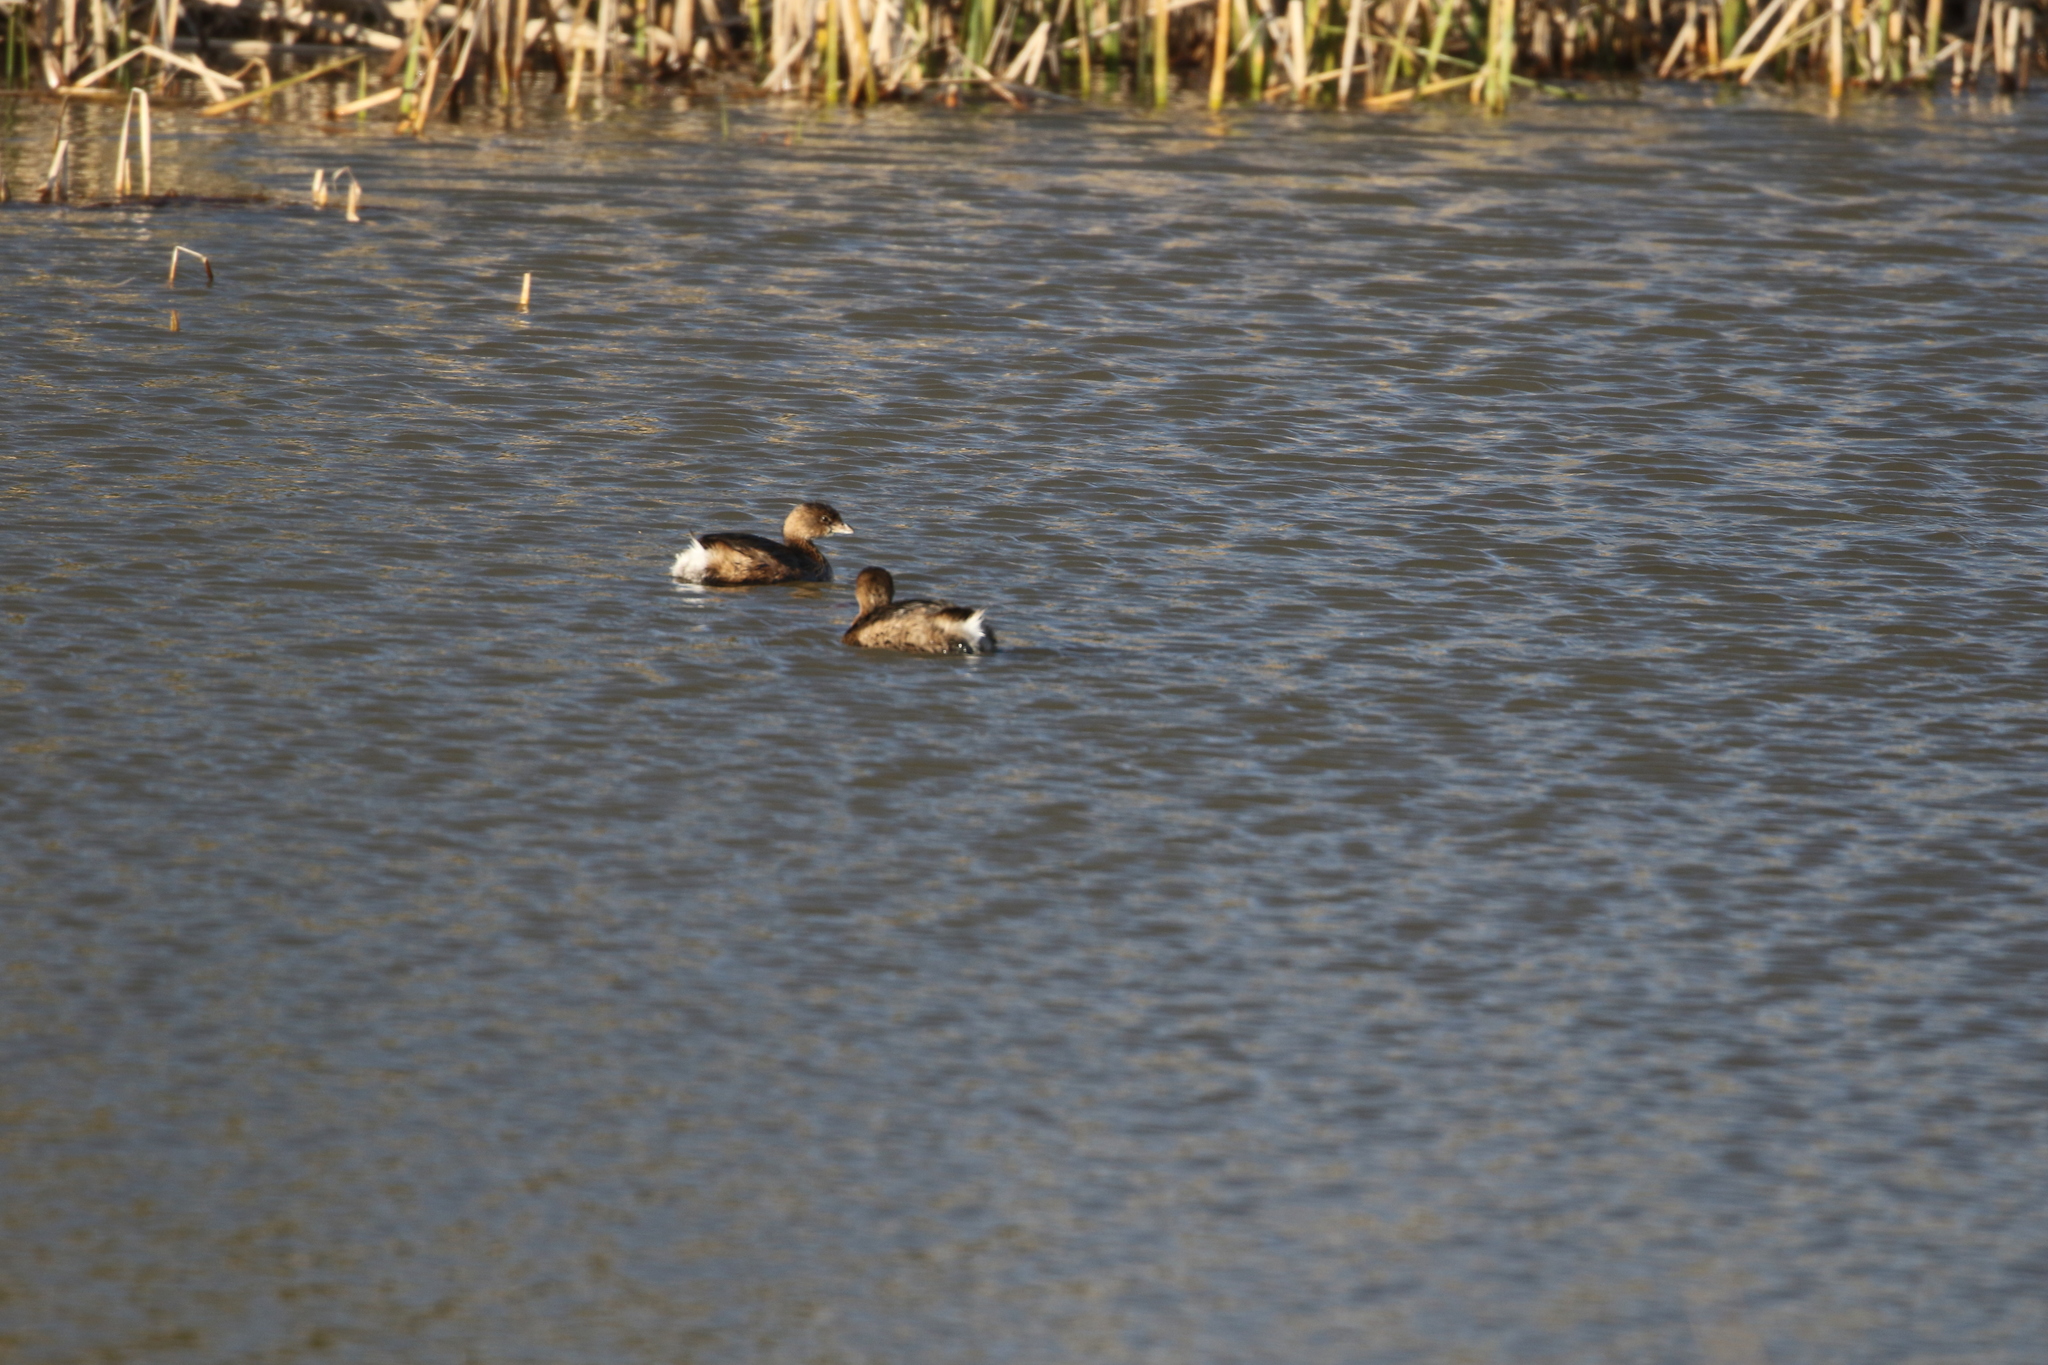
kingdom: Animalia
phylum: Chordata
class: Aves
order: Podicipediformes
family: Podicipedidae
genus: Podilymbus
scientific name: Podilymbus podiceps
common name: Pied-billed grebe
